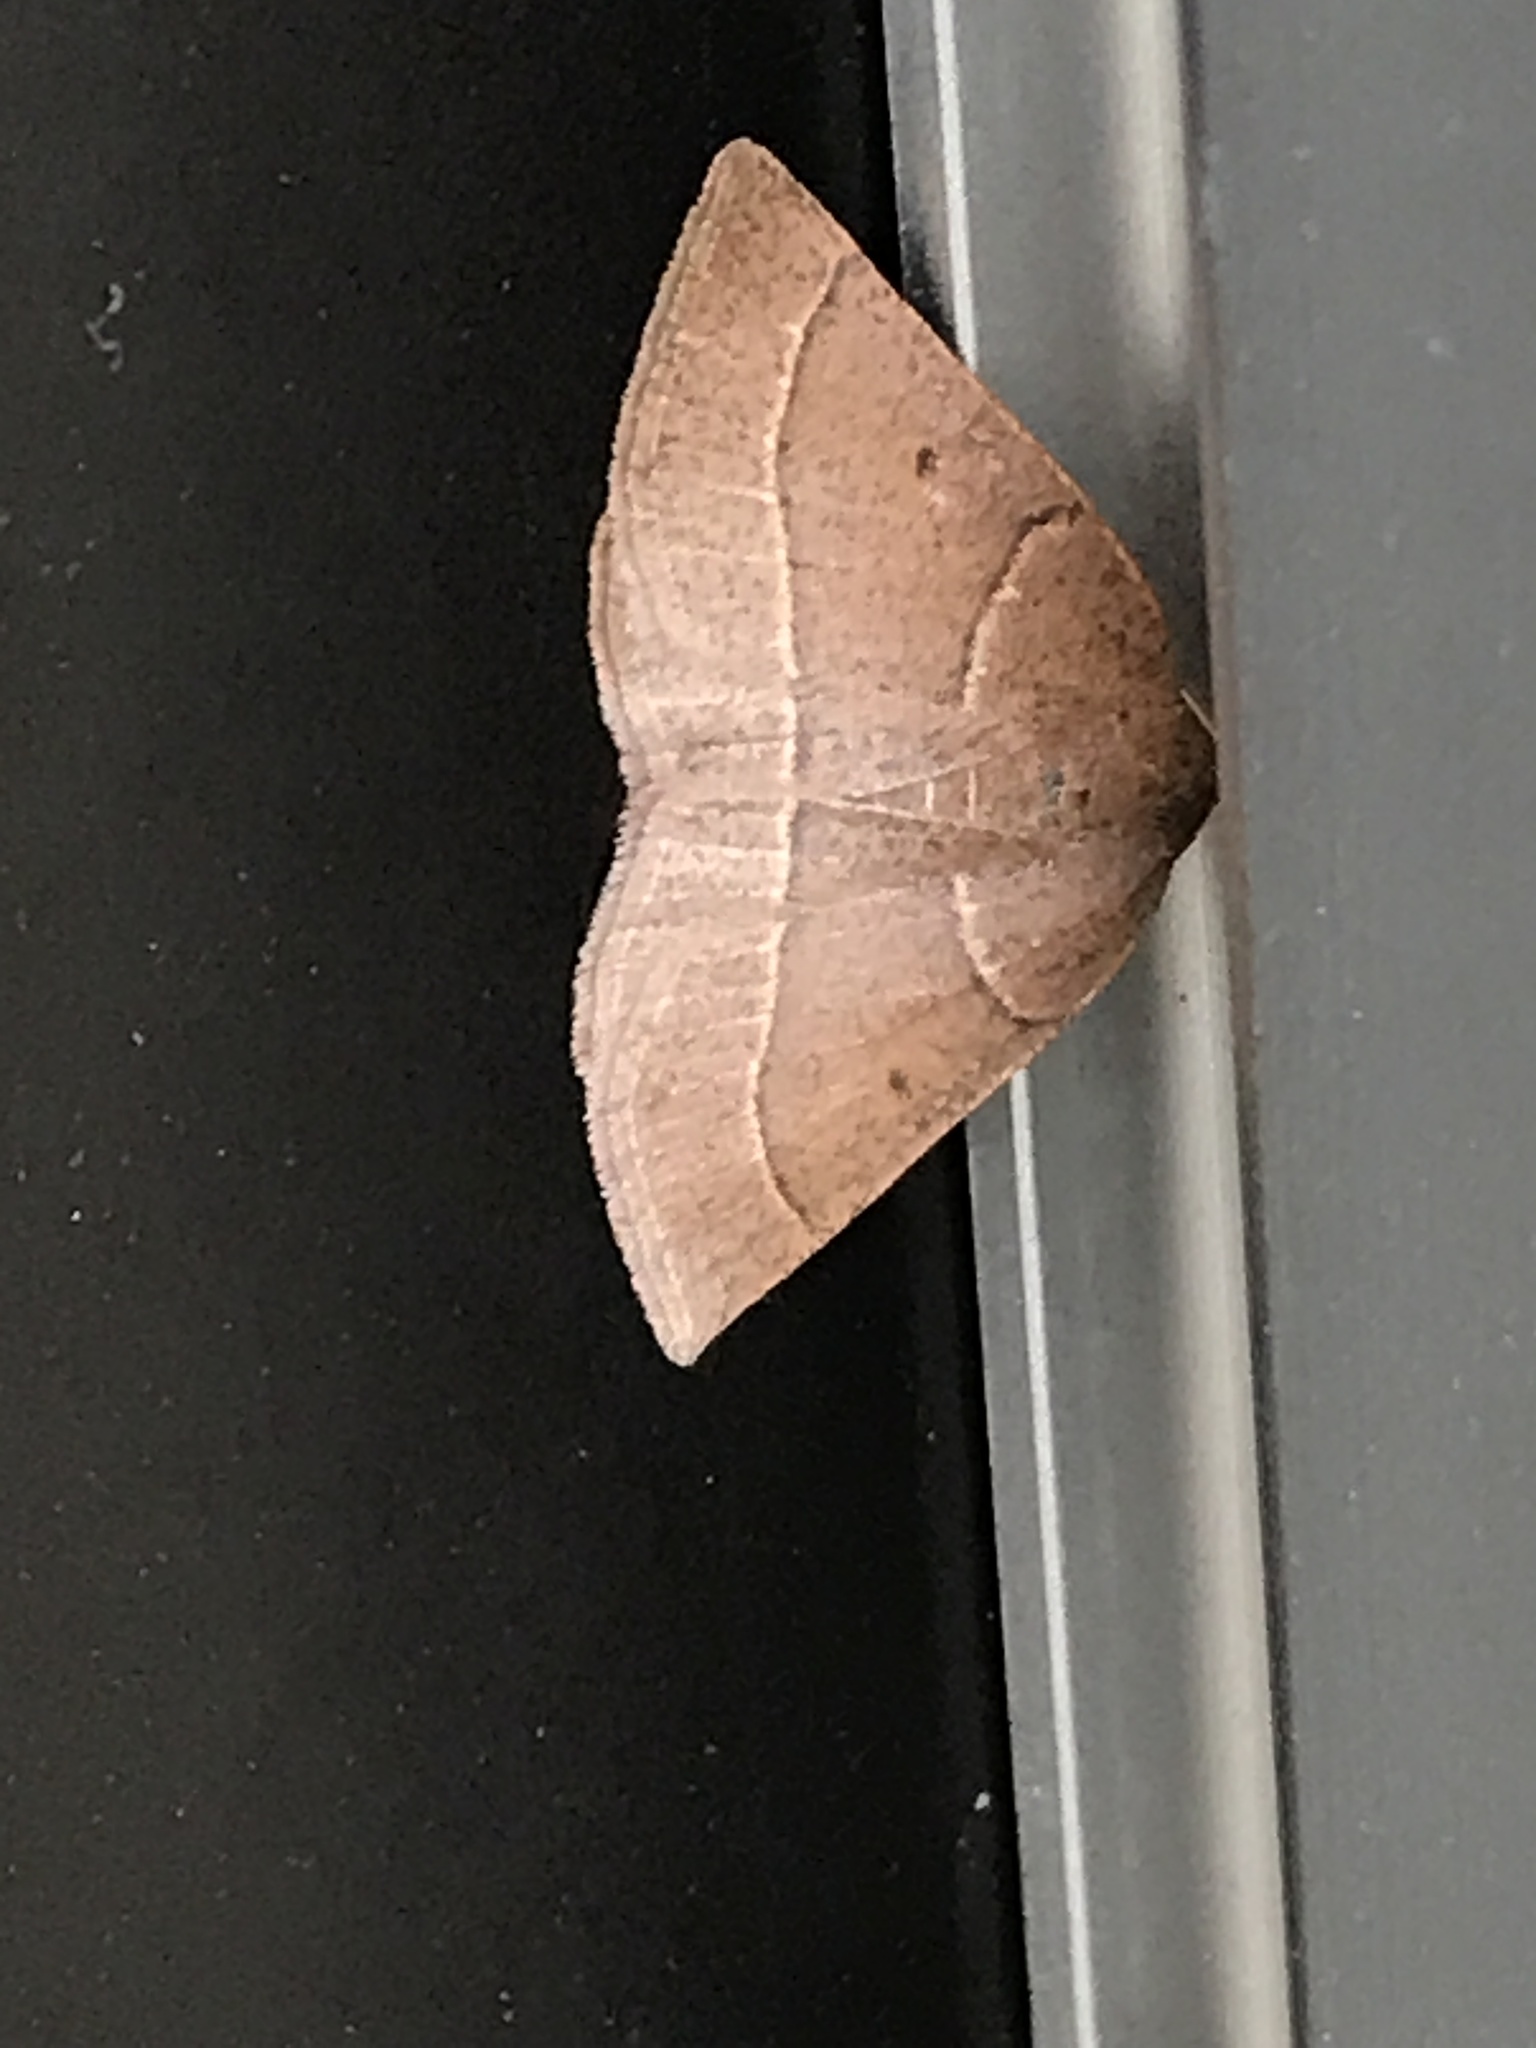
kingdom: Animalia
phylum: Arthropoda
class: Insecta
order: Lepidoptera
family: Geometridae
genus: Episemasia
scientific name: Episemasia cervinaria
